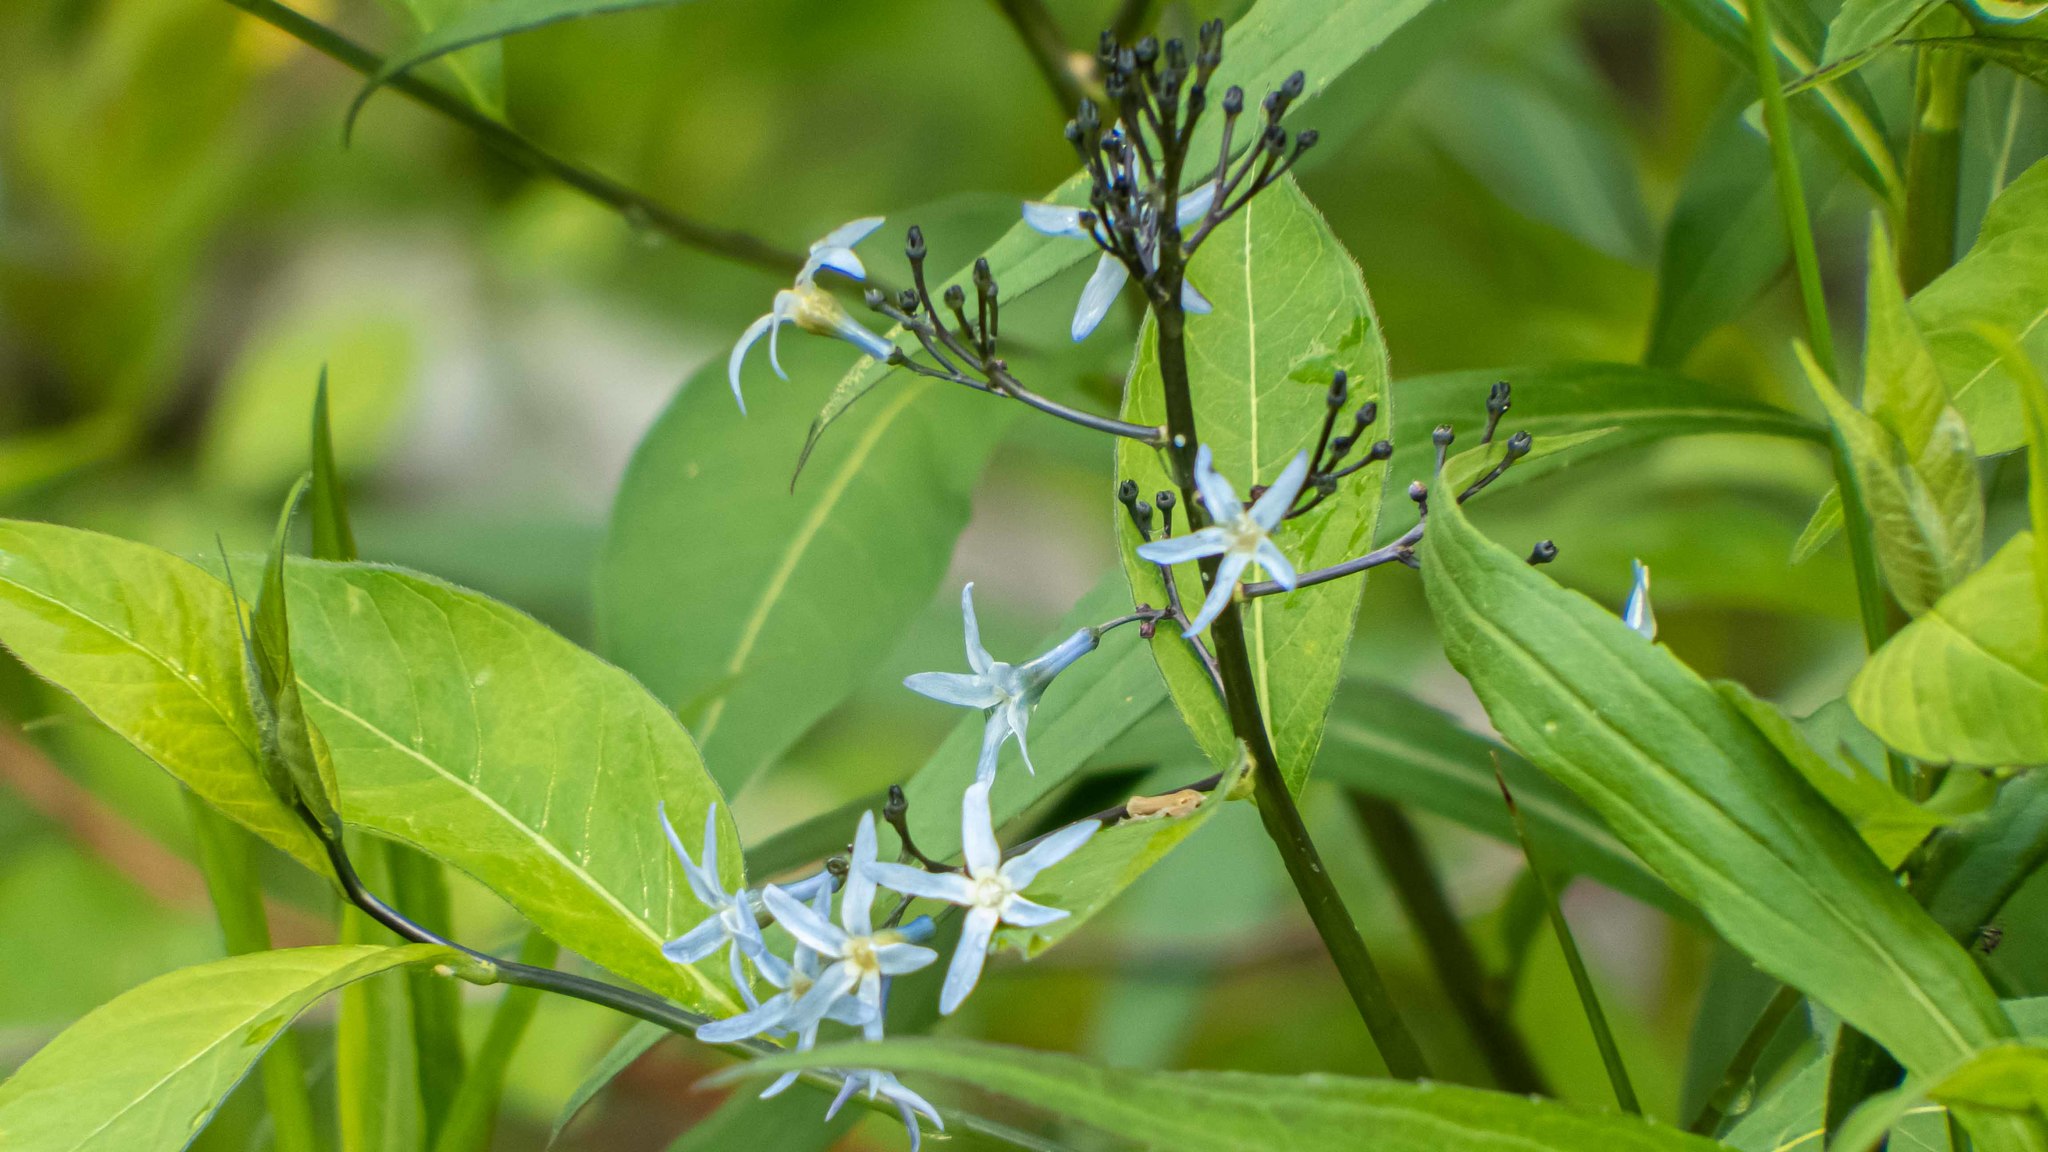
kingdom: Plantae
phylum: Tracheophyta
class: Magnoliopsida
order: Gentianales
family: Apocynaceae
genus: Amsonia
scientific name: Amsonia tabernaemontana
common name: Texas-star
